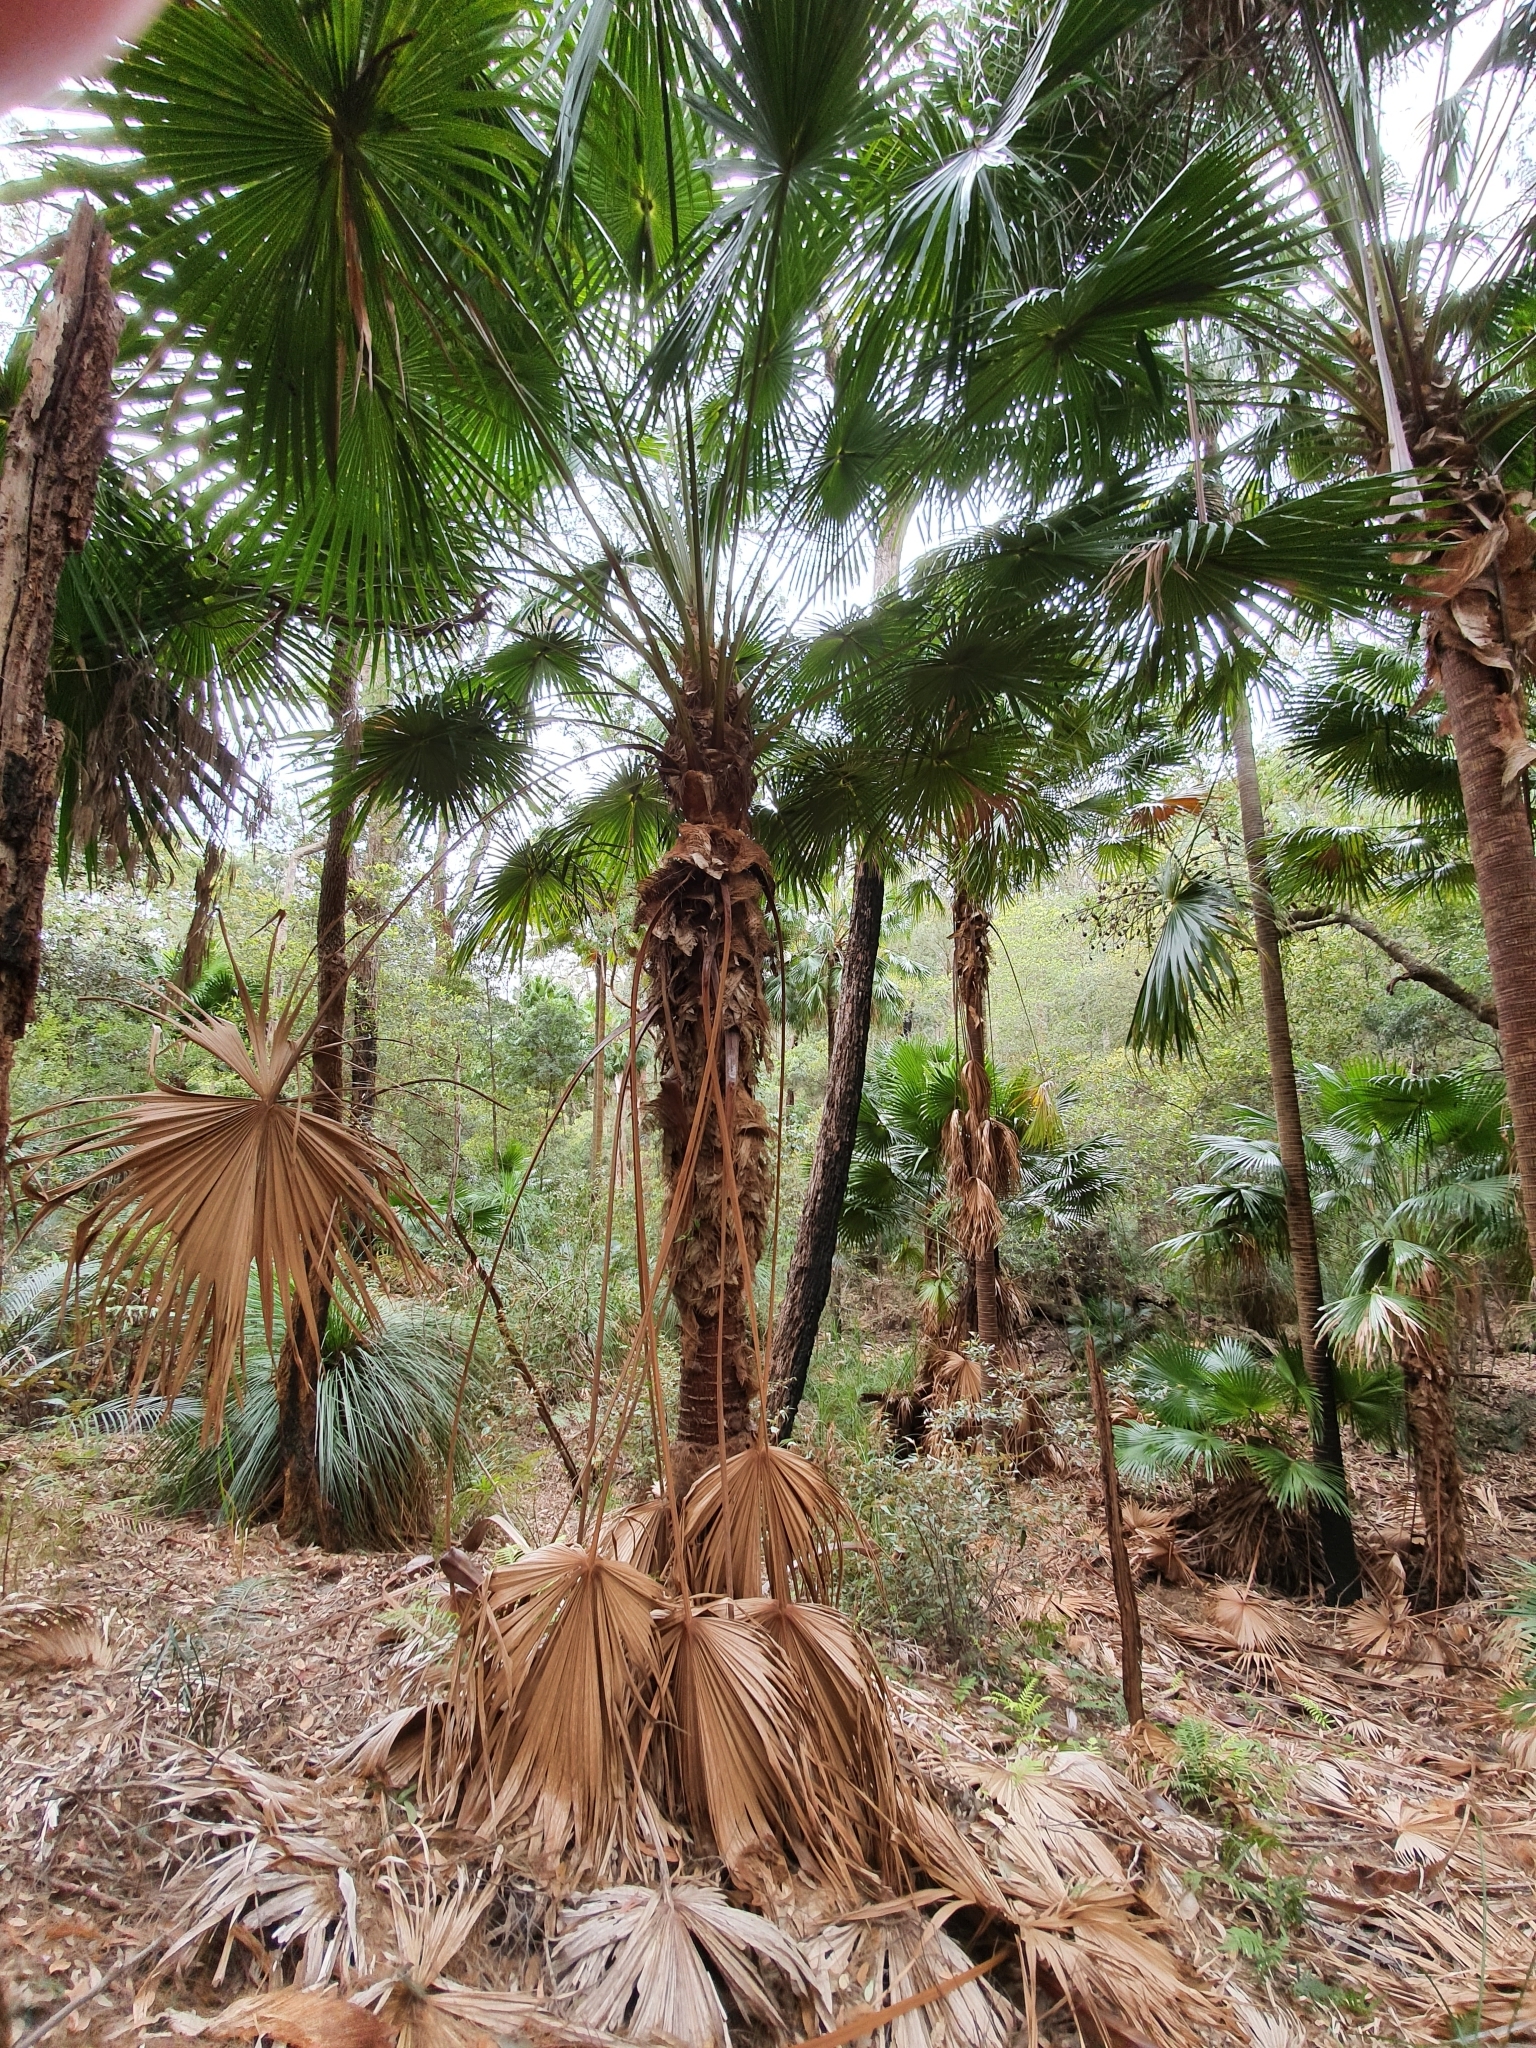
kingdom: Plantae
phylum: Tracheophyta
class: Liliopsida
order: Arecales
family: Arecaceae
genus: Livistona
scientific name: Livistona australis
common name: Cabbage fan palm
